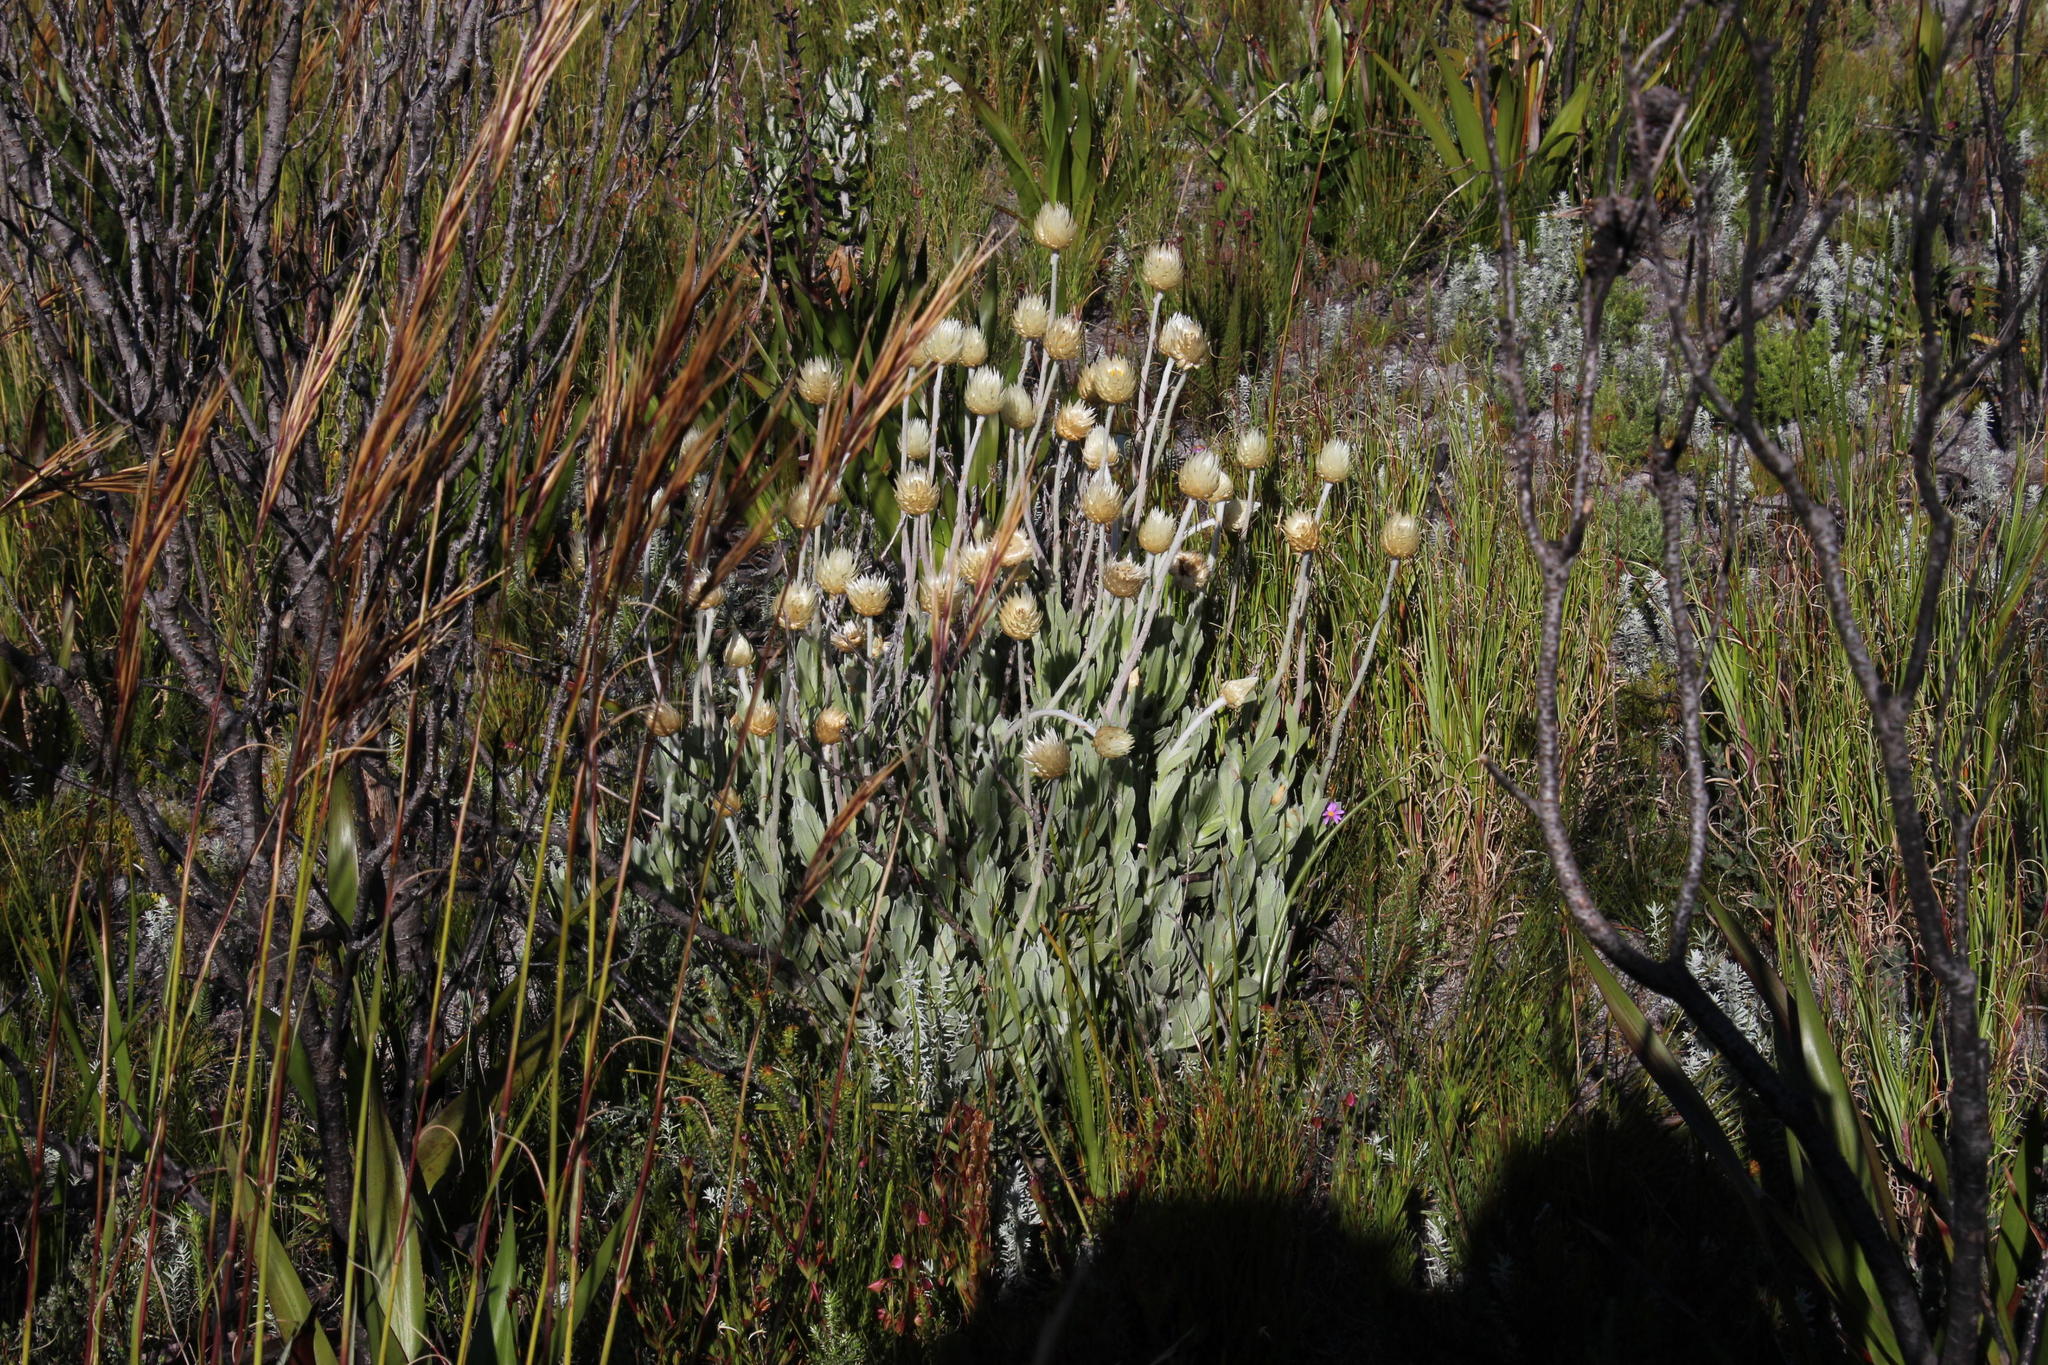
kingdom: Plantae
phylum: Tracheophyta
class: Magnoliopsida
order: Asterales
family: Asteraceae
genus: Syncarpha
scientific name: Syncarpha speciosissima
